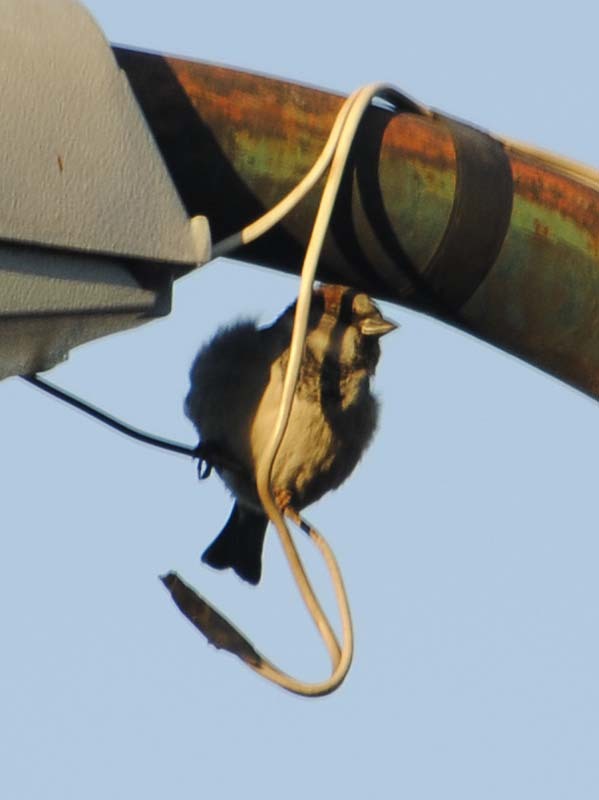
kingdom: Animalia
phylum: Chordata
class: Aves
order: Passeriformes
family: Passeridae
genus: Passer
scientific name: Passer domesticus
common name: House sparrow
